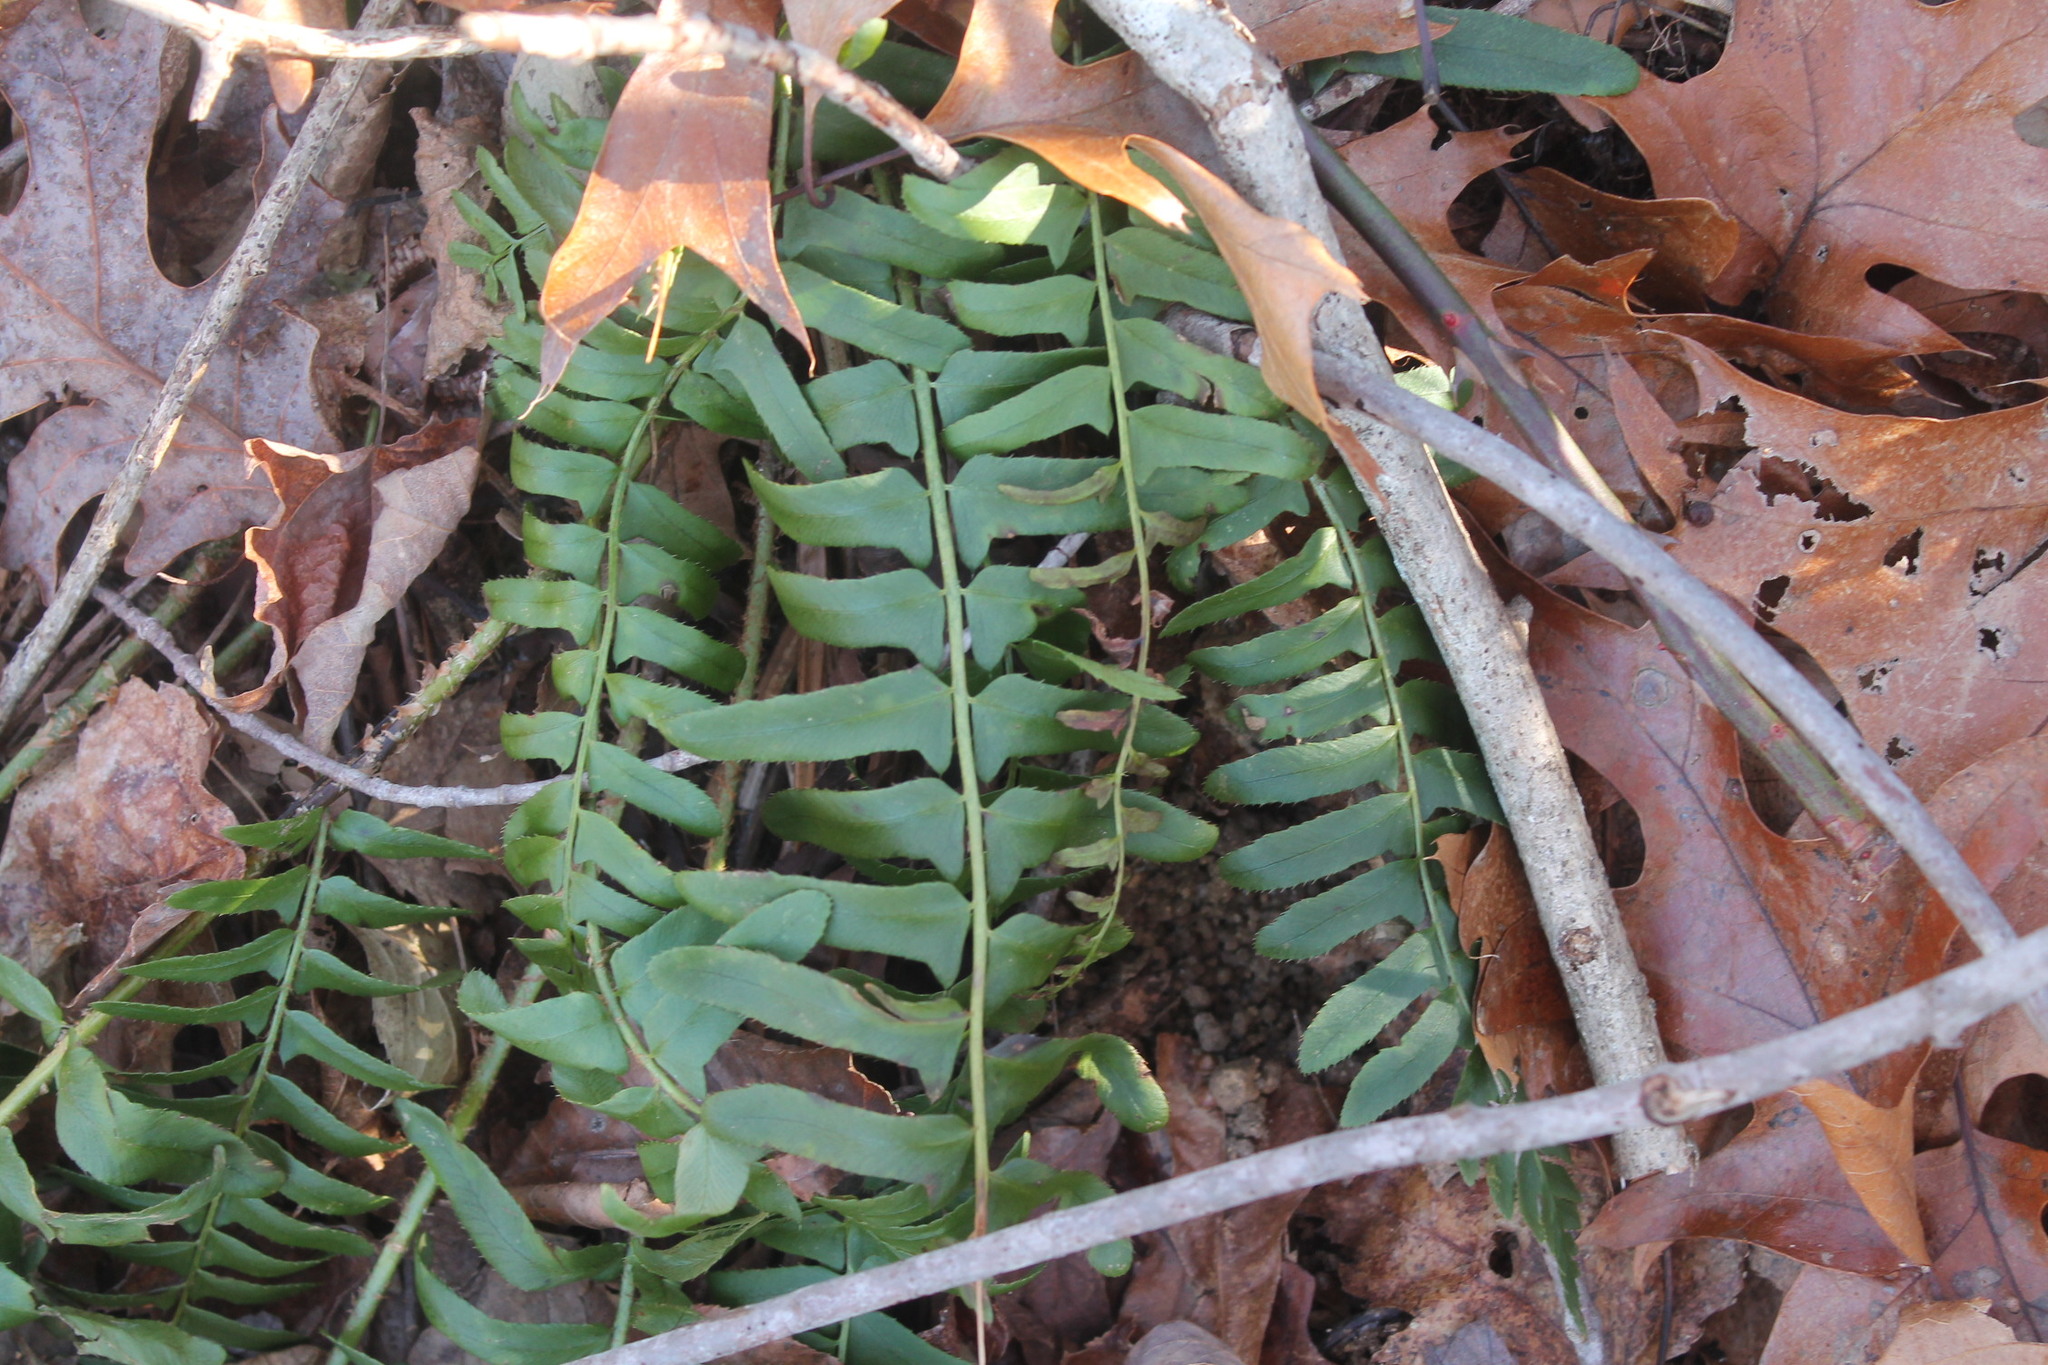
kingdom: Plantae
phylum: Tracheophyta
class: Polypodiopsida
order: Polypodiales
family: Dryopteridaceae
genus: Polystichum
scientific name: Polystichum acrostichoides
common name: Christmas fern
